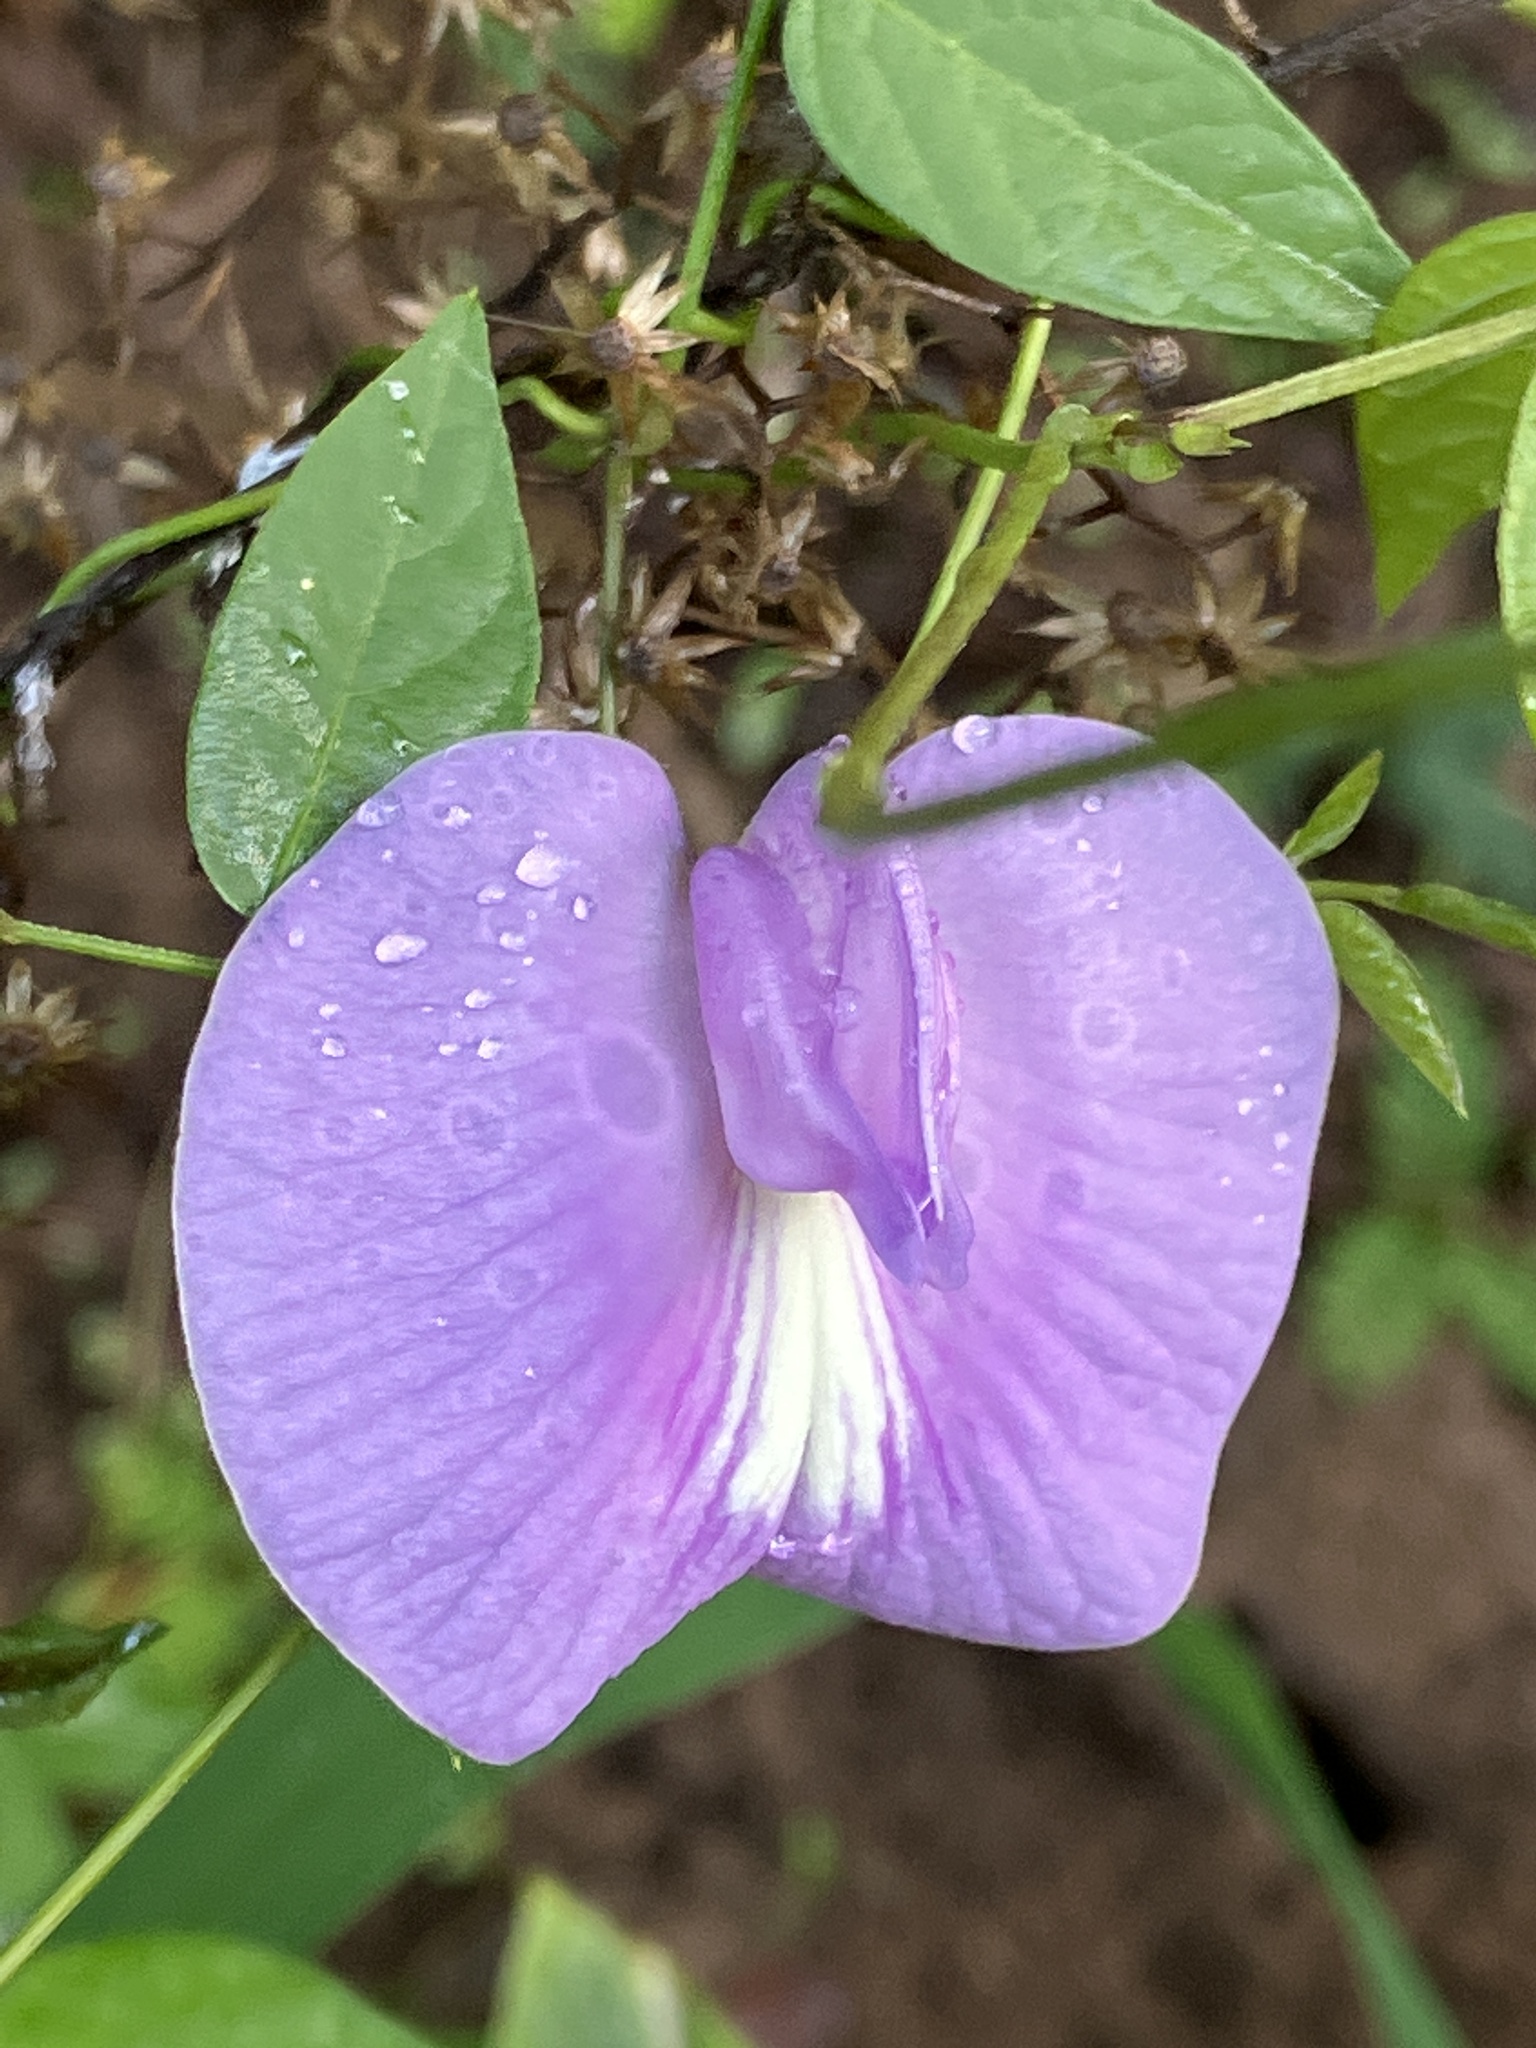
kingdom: Plantae
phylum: Tracheophyta
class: Magnoliopsida
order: Fabales
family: Fabaceae
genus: Centrosema
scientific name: Centrosema virginianum
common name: Butterfly-pea
